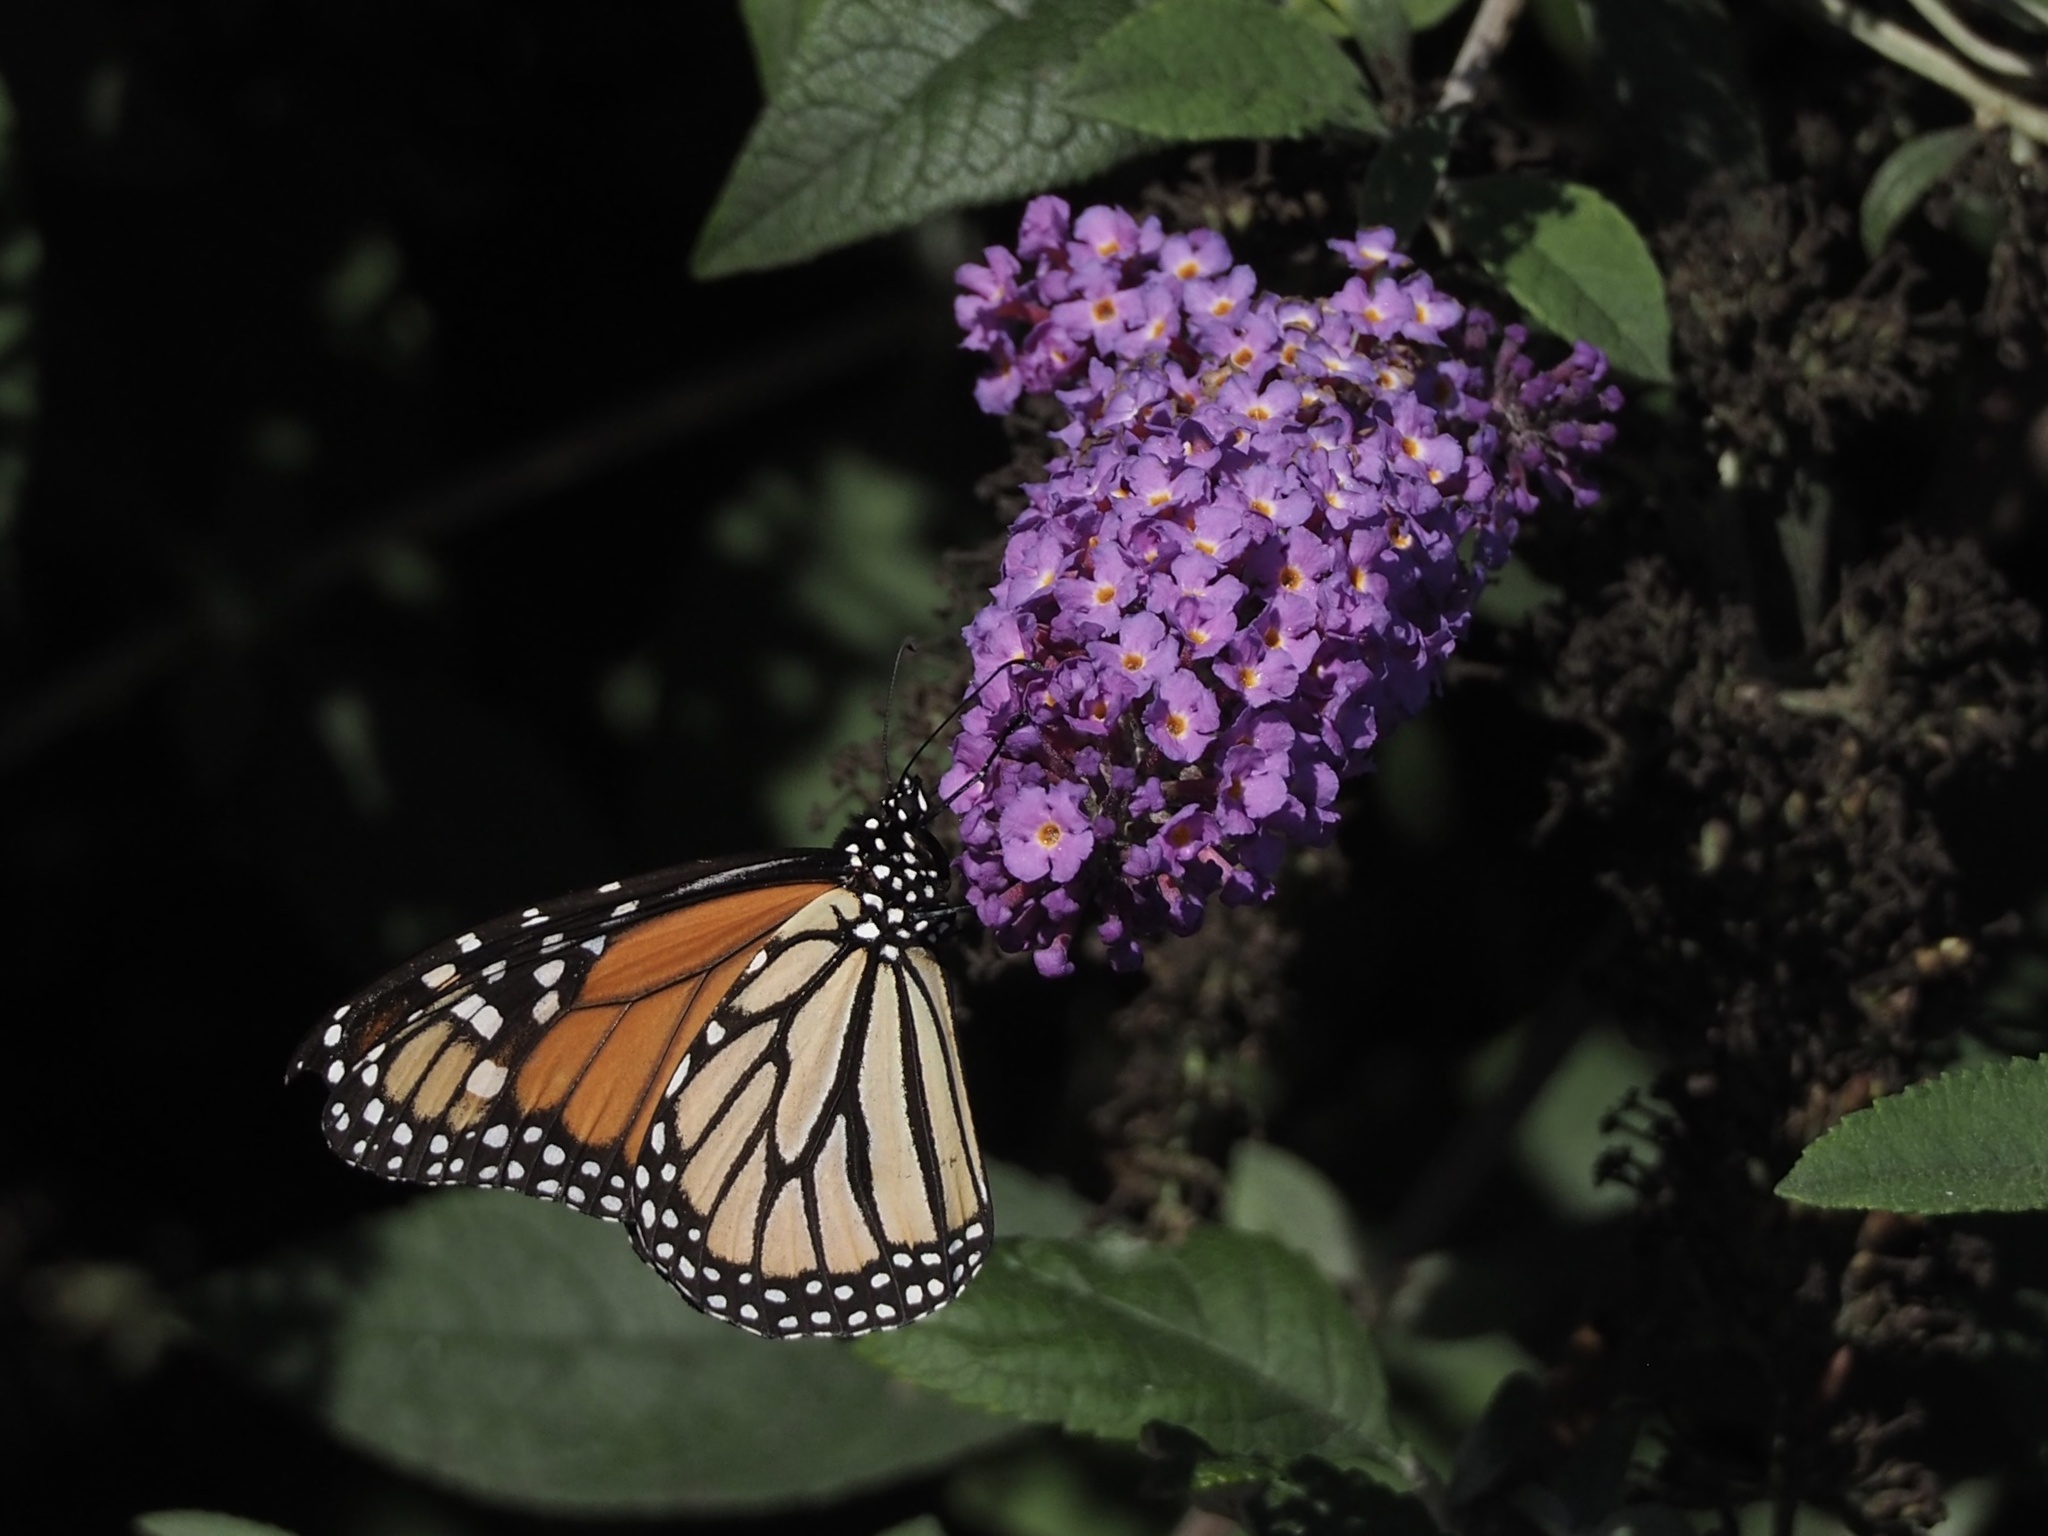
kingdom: Animalia
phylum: Arthropoda
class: Insecta
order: Lepidoptera
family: Nymphalidae
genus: Danaus
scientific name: Danaus plexippus
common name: Monarch
